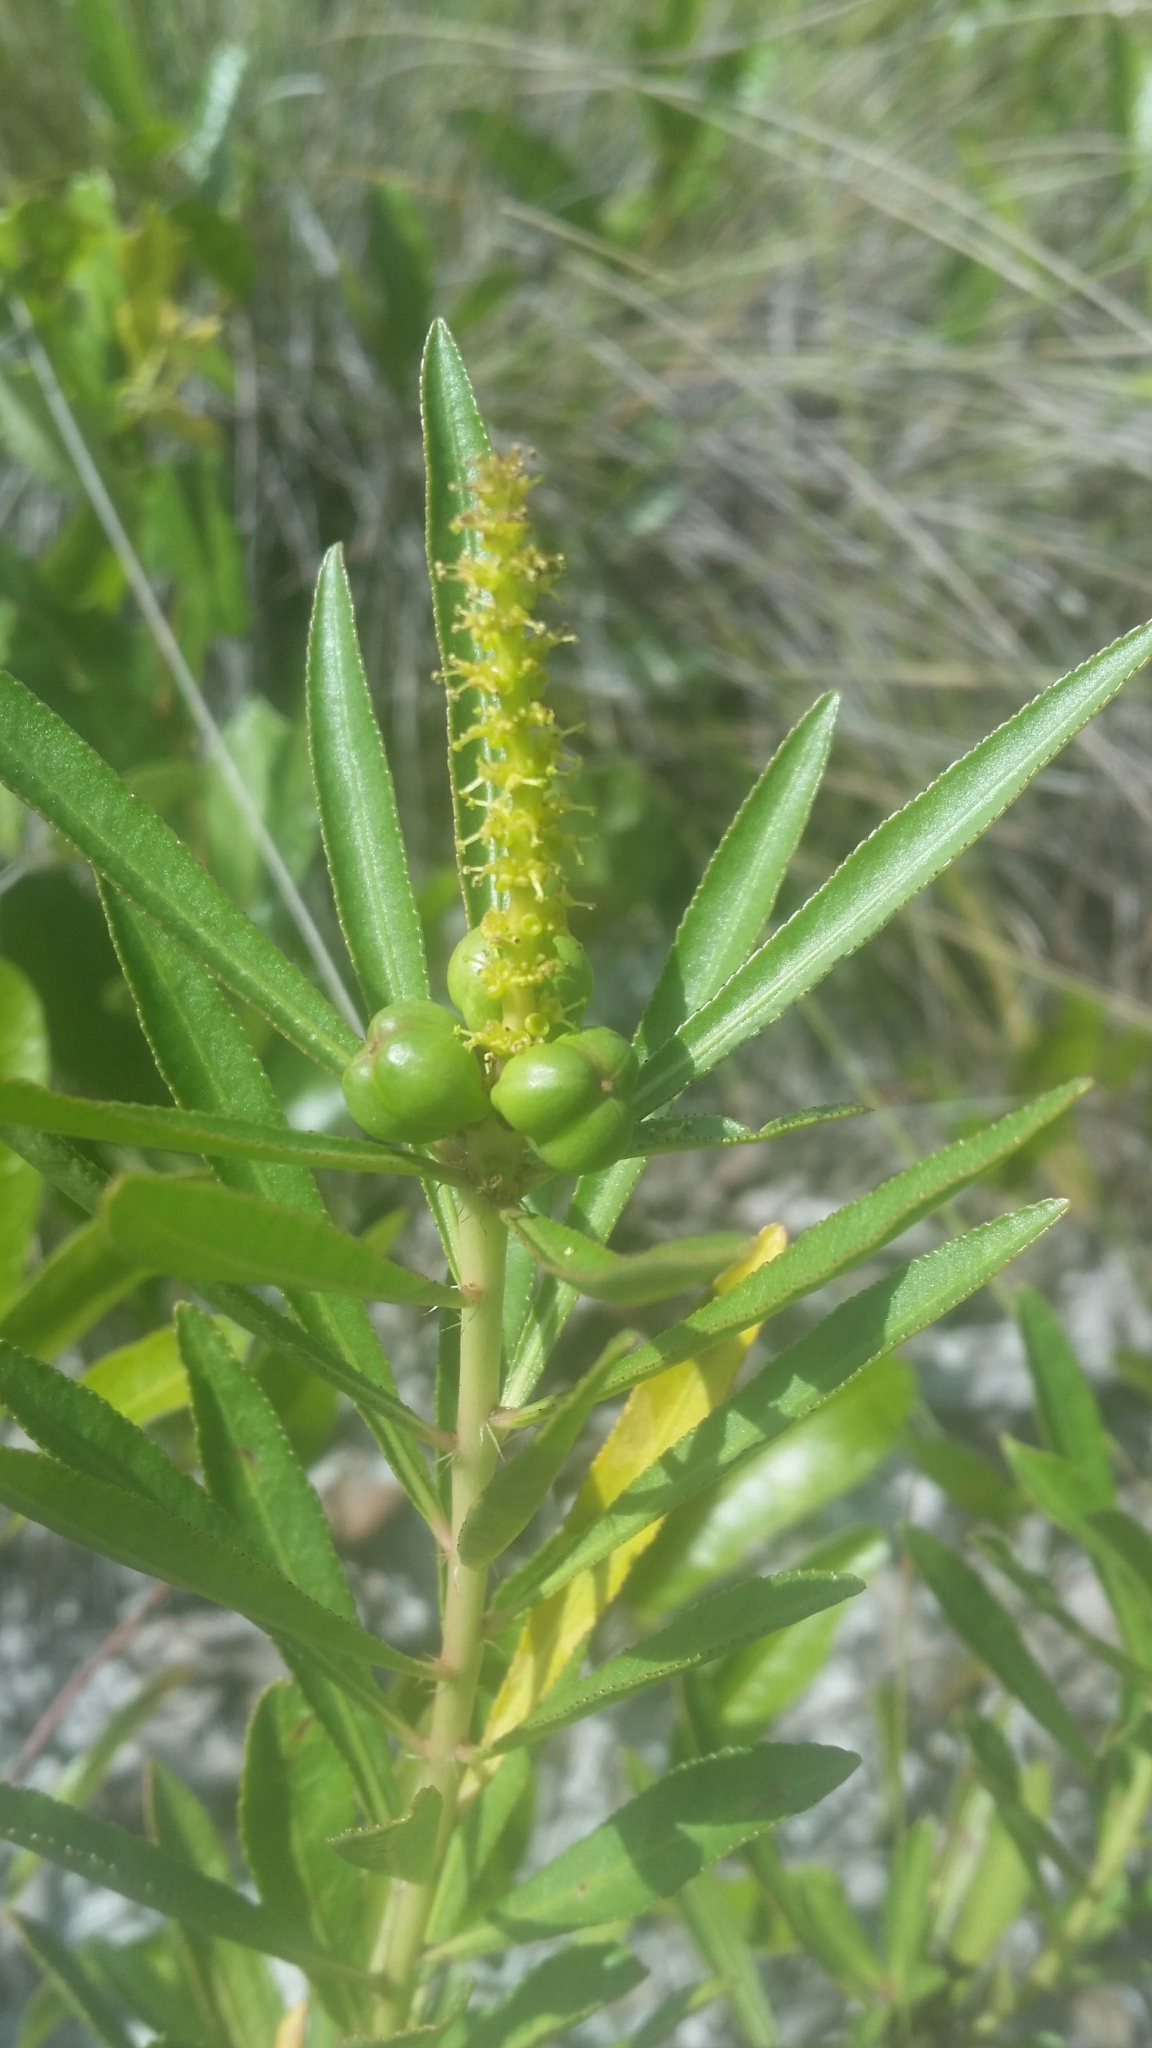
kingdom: Plantae
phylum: Tracheophyta
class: Magnoliopsida
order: Malpighiales
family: Euphorbiaceae
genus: Stillingia
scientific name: Stillingia sylvatica
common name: Queen's-delight
